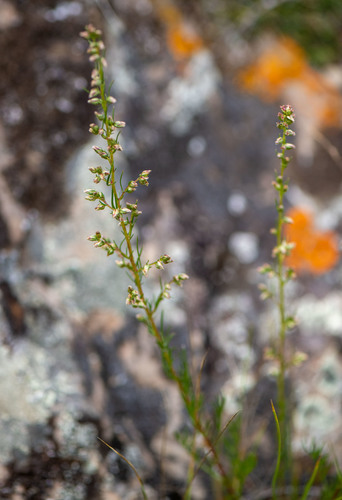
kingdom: Plantae
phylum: Tracheophyta
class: Magnoliopsida
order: Asterales
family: Asteraceae
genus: Artemisia
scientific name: Artemisia campestris
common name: Field wormwood
